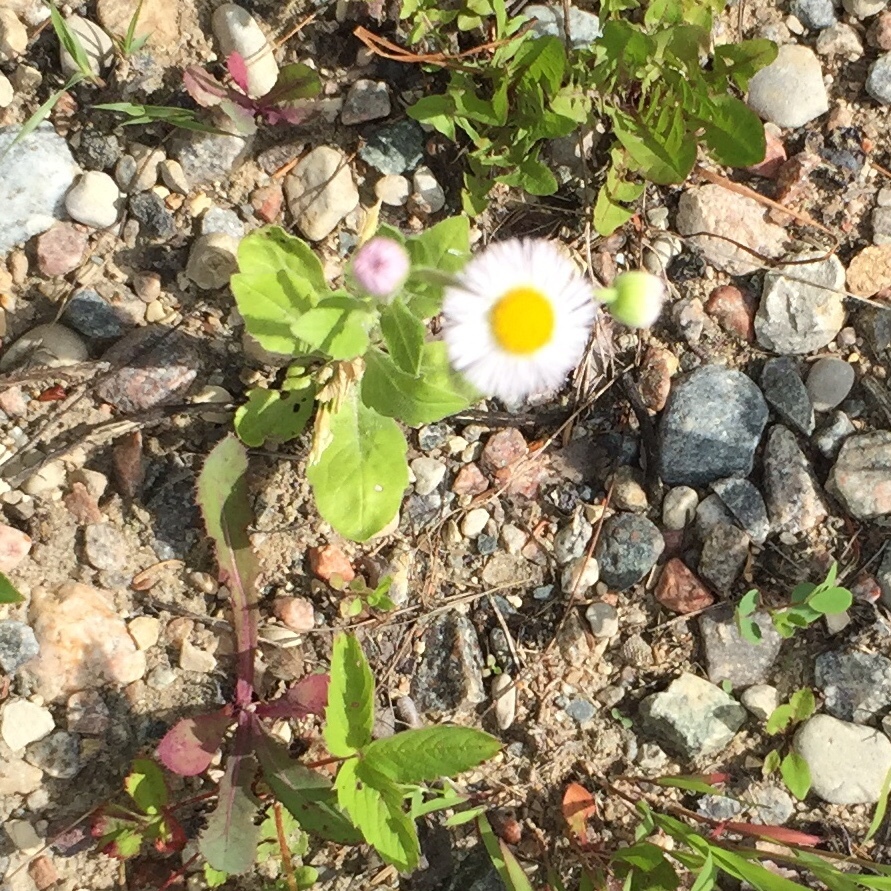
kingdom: Plantae
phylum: Tracheophyta
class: Magnoliopsida
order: Asterales
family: Asteraceae
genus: Erigeron
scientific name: Erigeron philadelphicus
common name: Robin's-plantain
